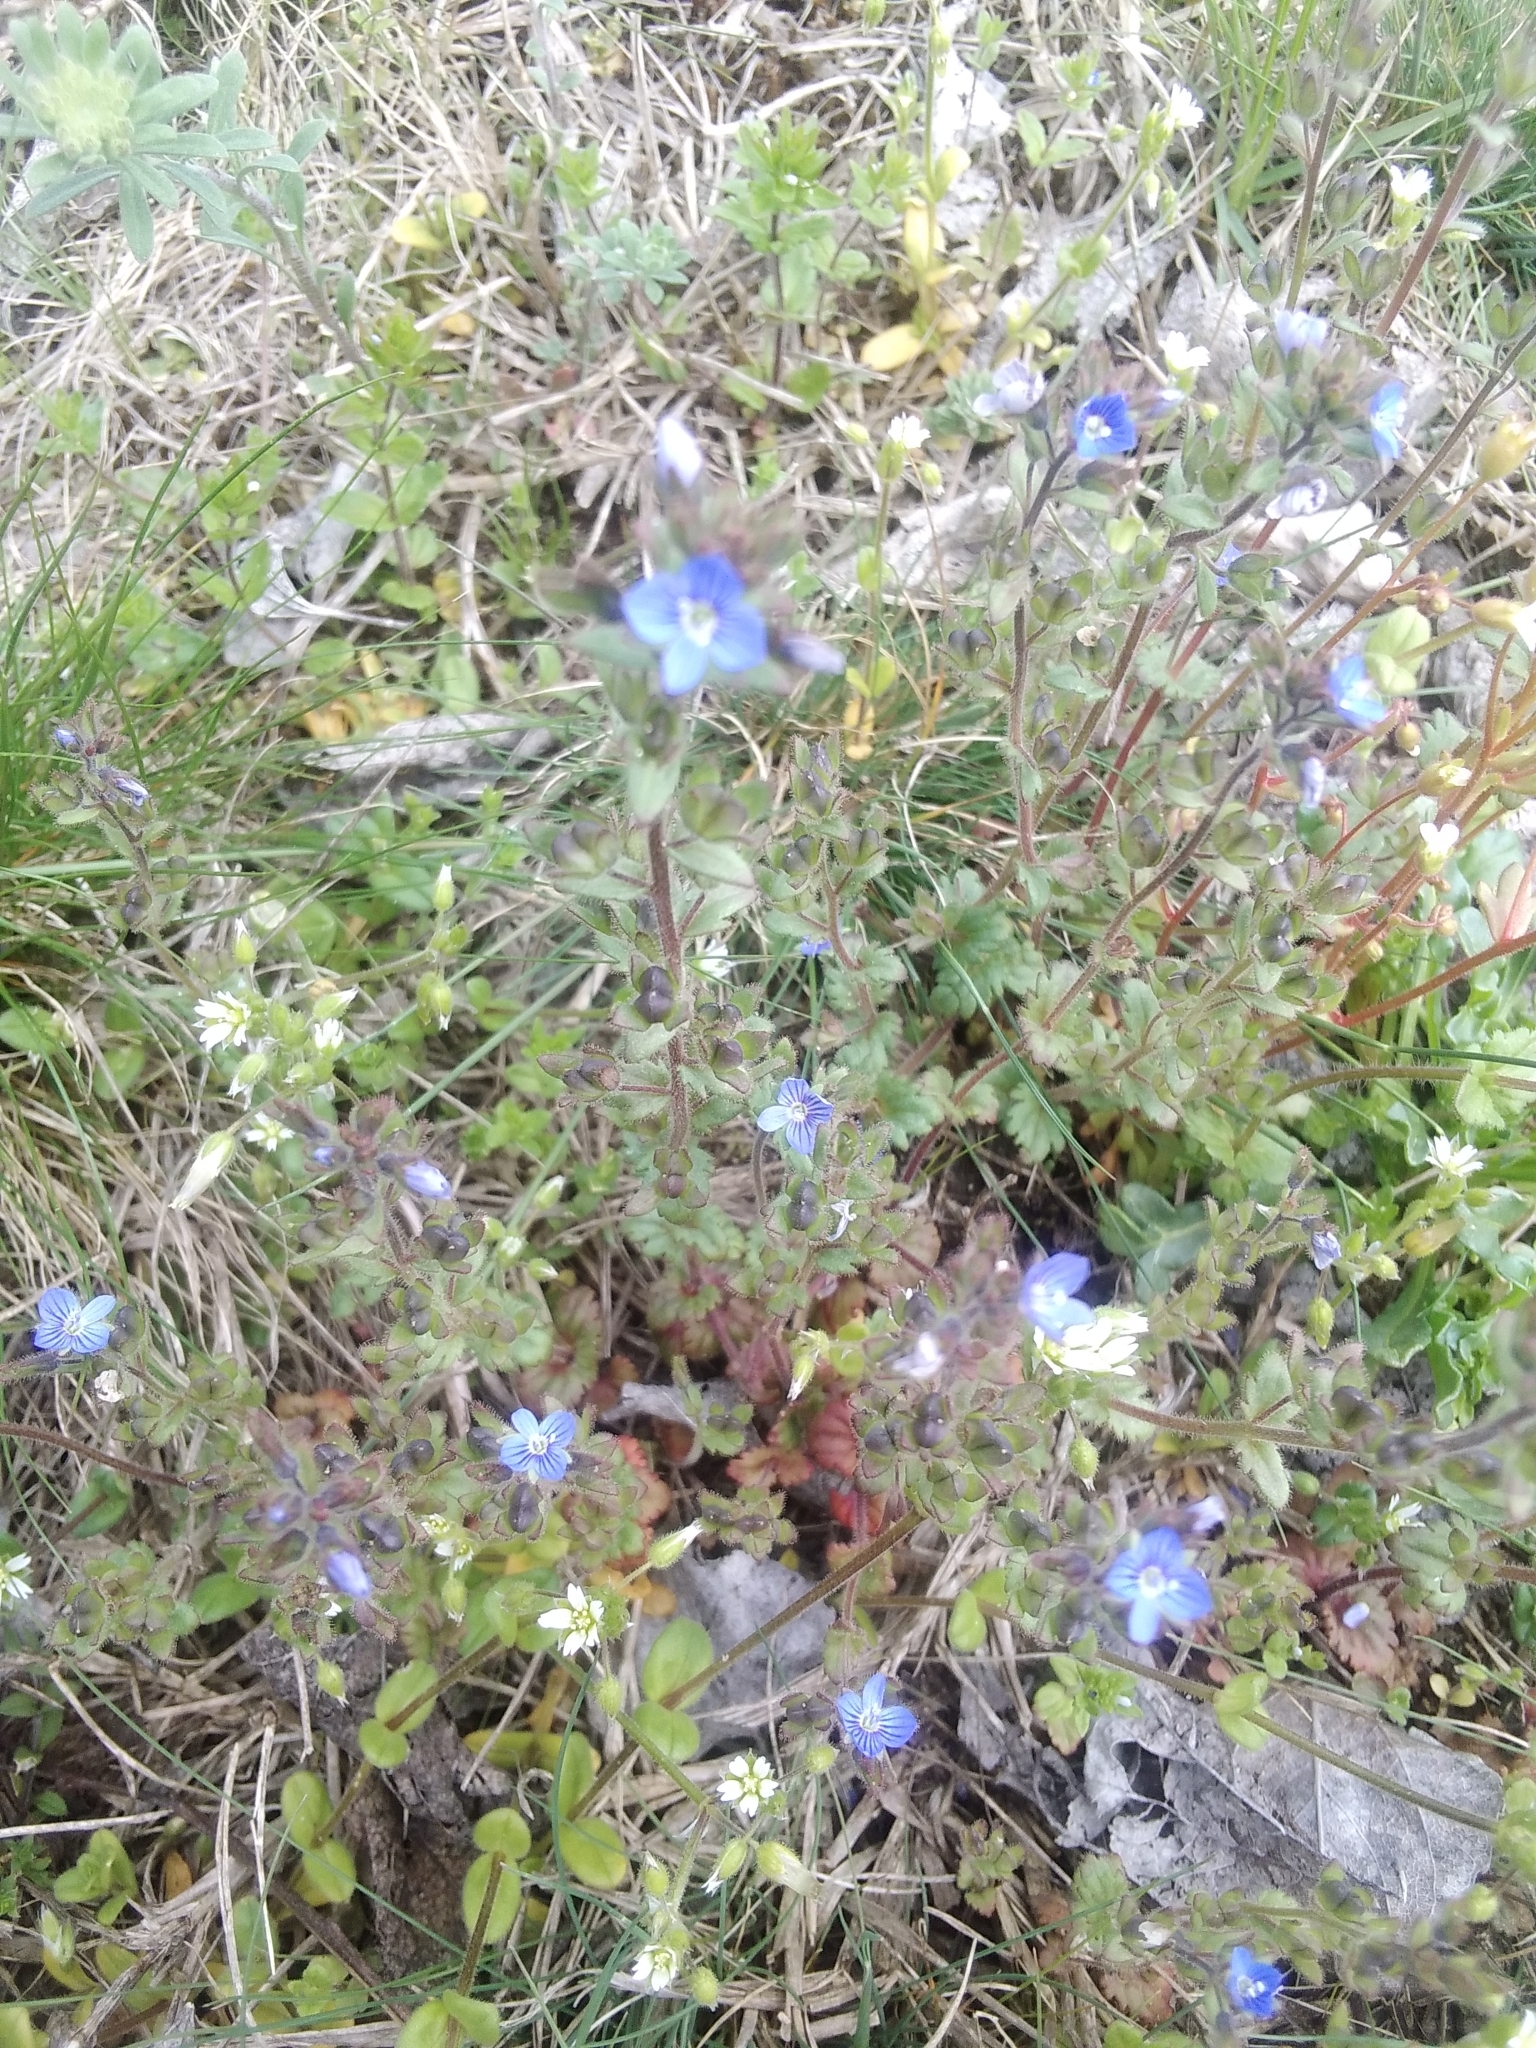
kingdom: Plantae
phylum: Tracheophyta
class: Magnoliopsida
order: Lamiales
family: Plantaginaceae
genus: Veronica
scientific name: Veronica praecox
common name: Breckland speedwell
